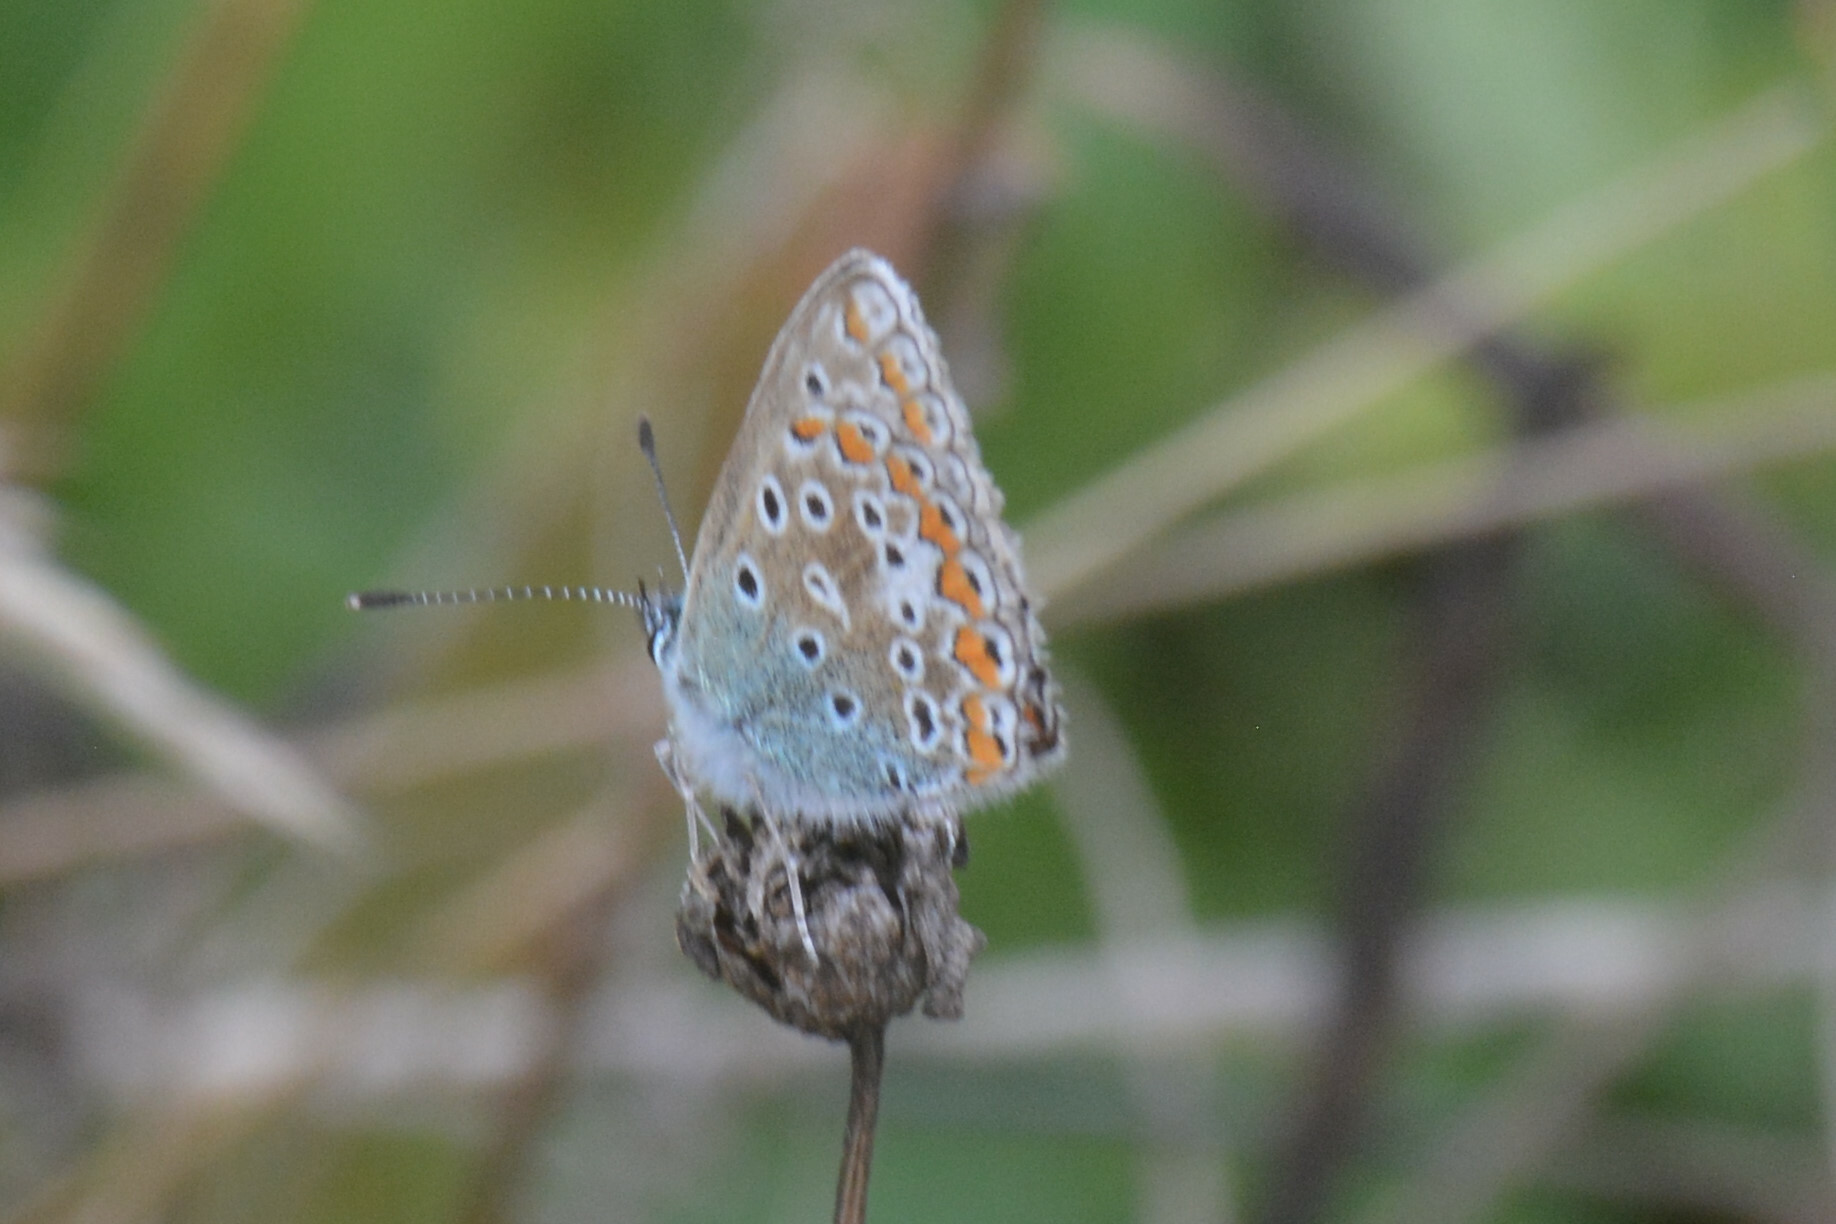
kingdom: Animalia
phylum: Arthropoda
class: Insecta
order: Lepidoptera
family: Lycaenidae
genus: Polyommatus
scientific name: Polyommatus icarus
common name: Common blue
